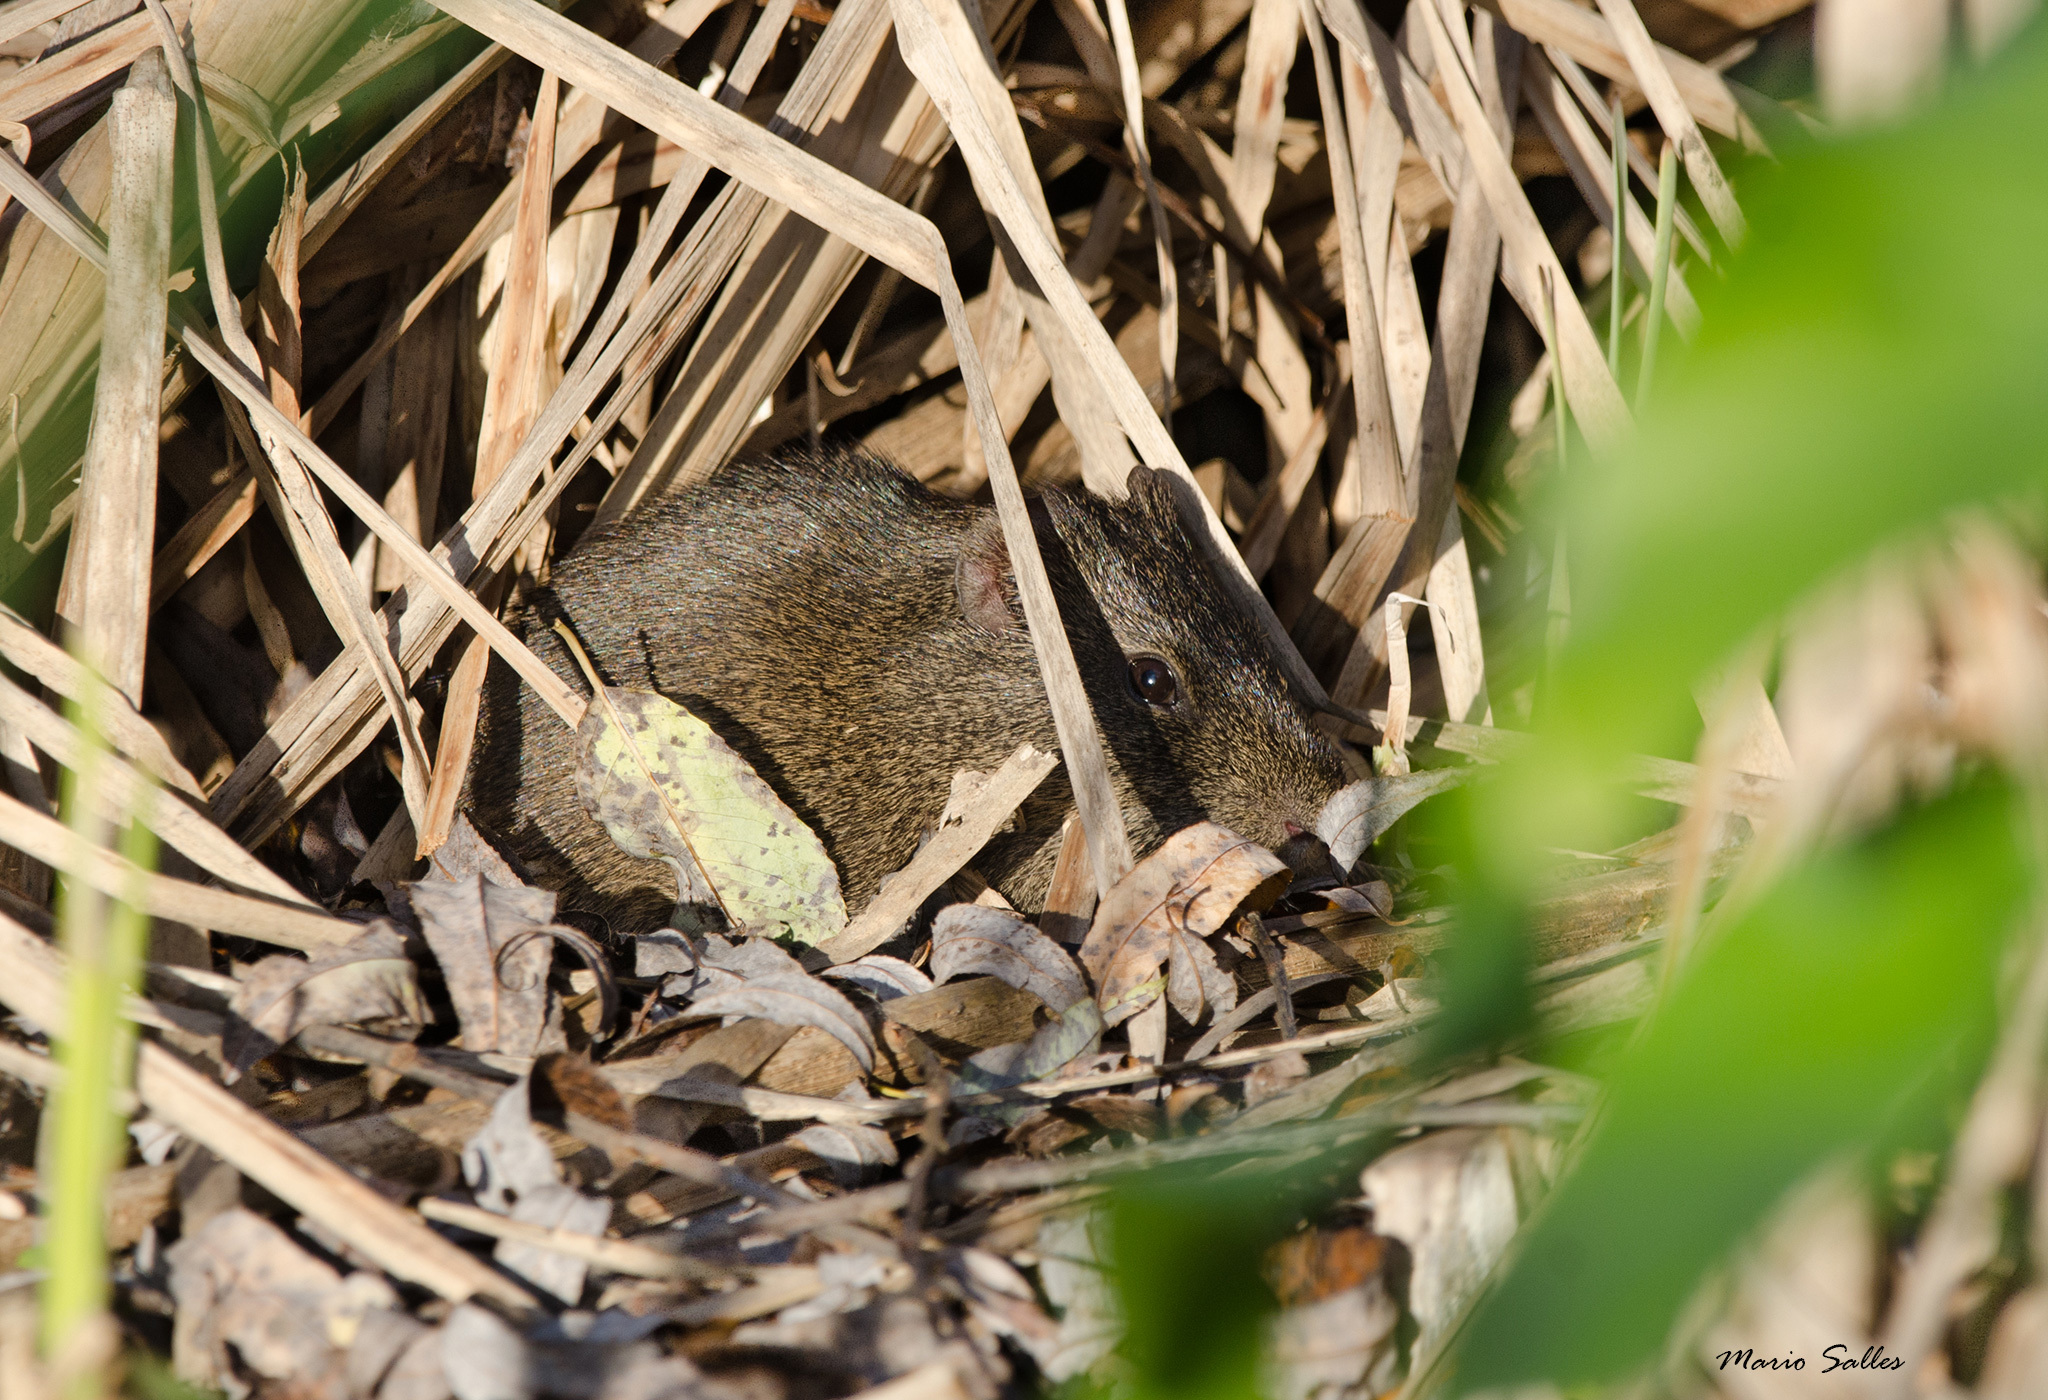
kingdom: Animalia
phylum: Chordata
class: Mammalia
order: Rodentia
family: Caviidae
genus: Cavia
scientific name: Cavia aperea
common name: Brazilian guinea pig
